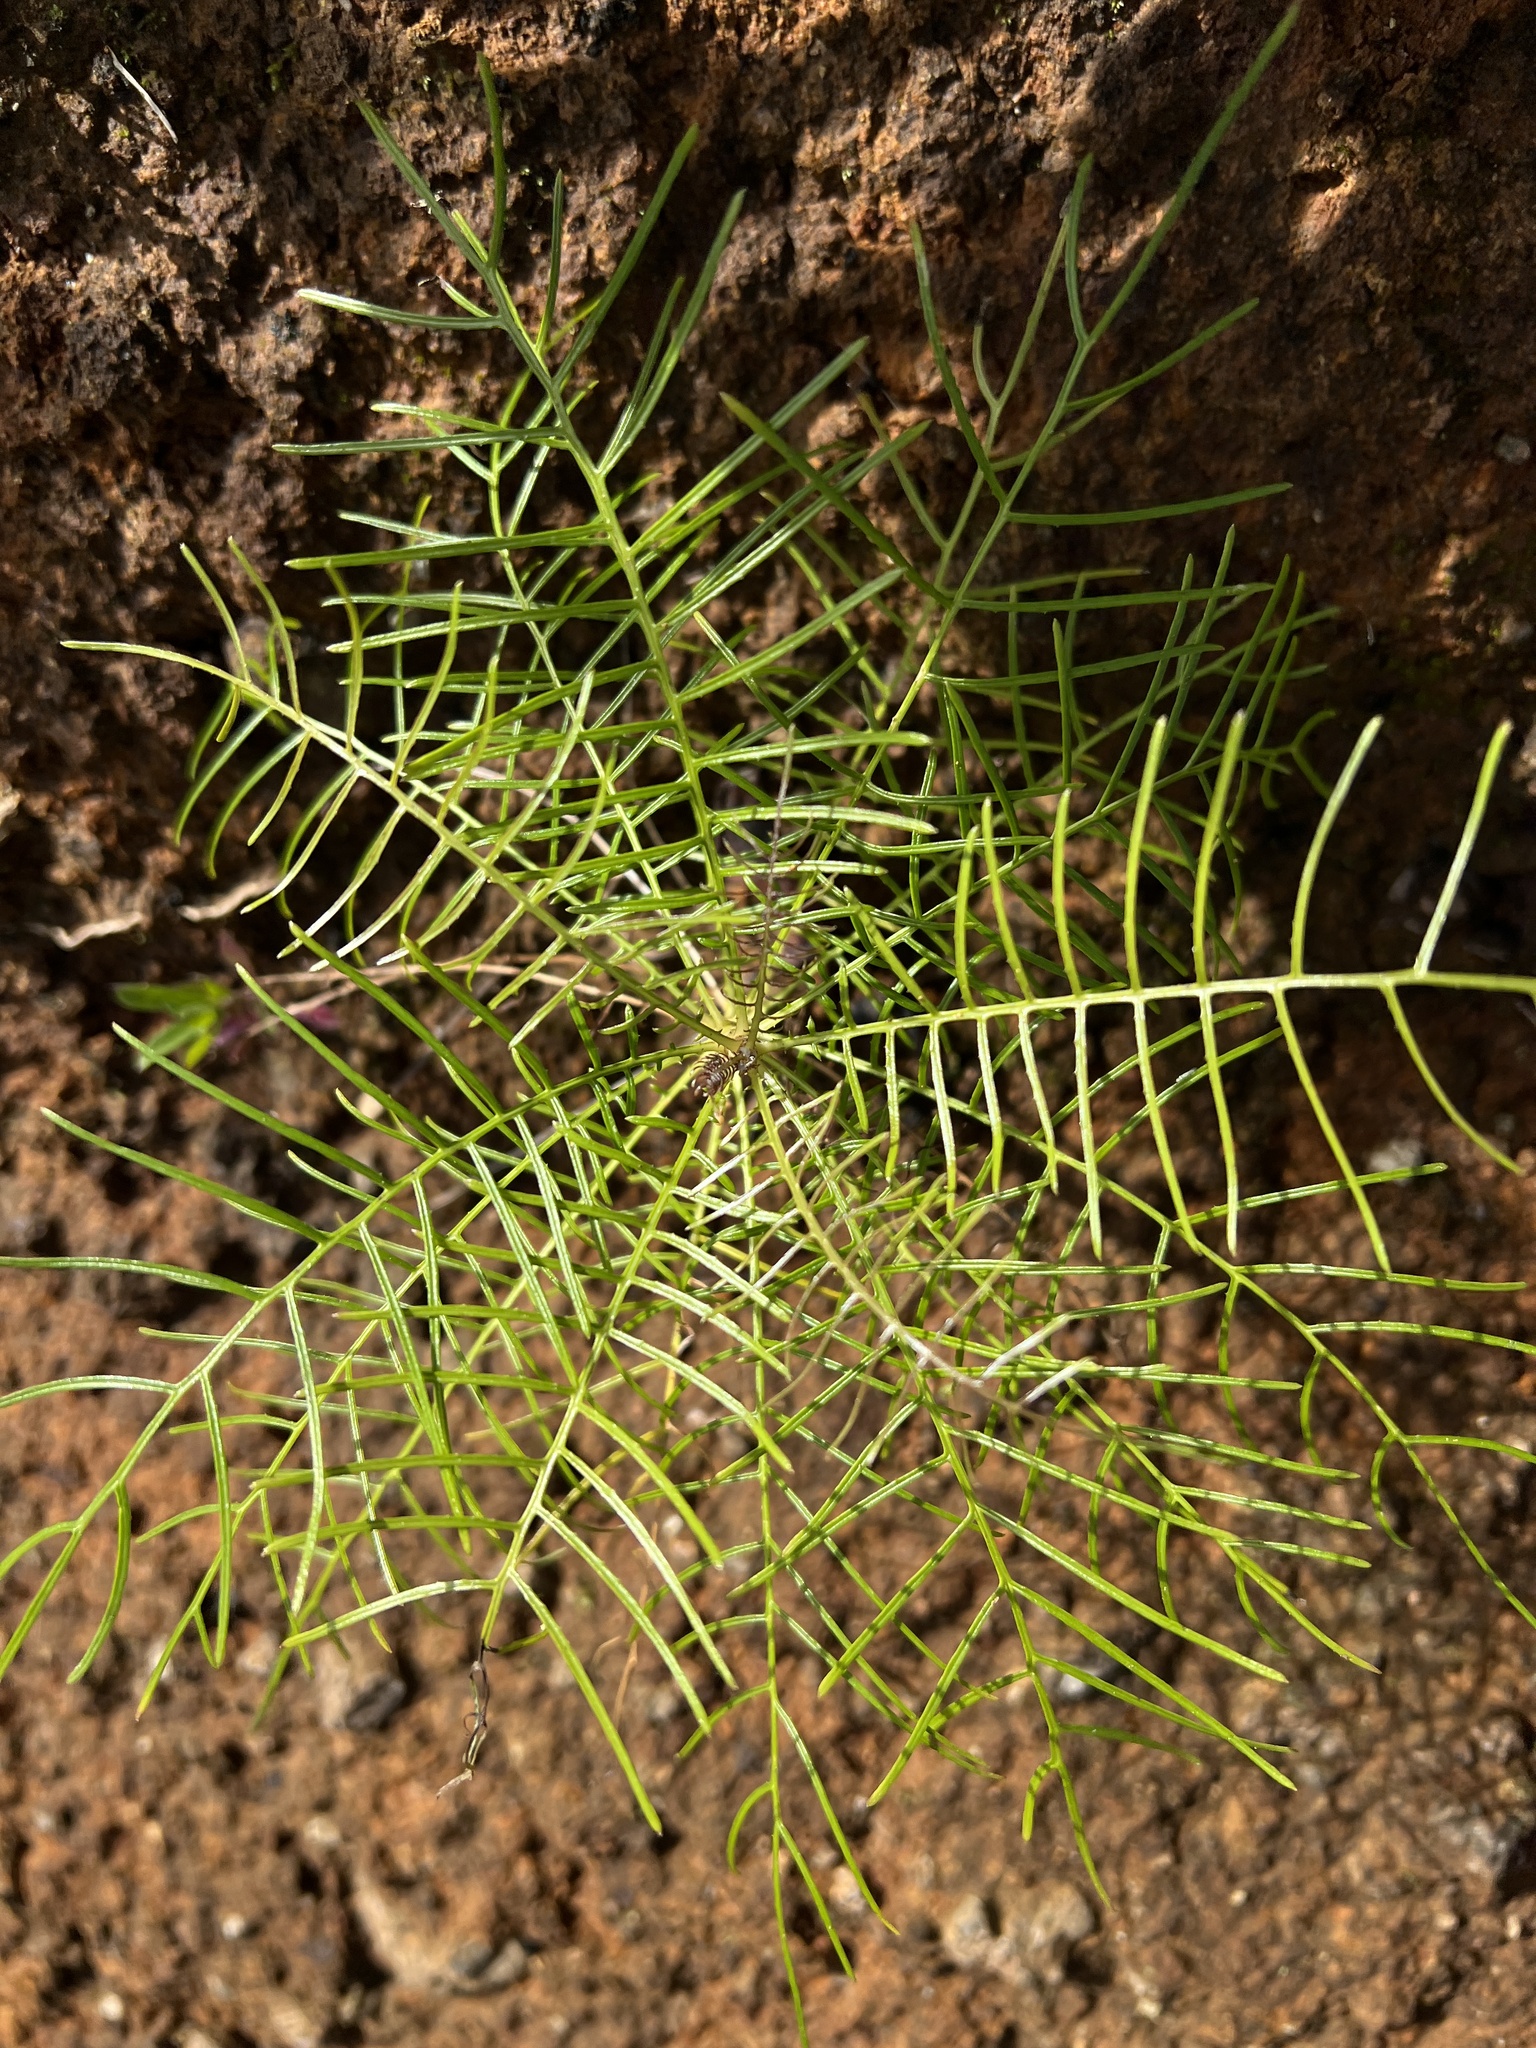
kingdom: Plantae
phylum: Tracheophyta
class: Magnoliopsida
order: Asterales
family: Asteraceae
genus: Sonchus
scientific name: Sonchus leptocephalus
